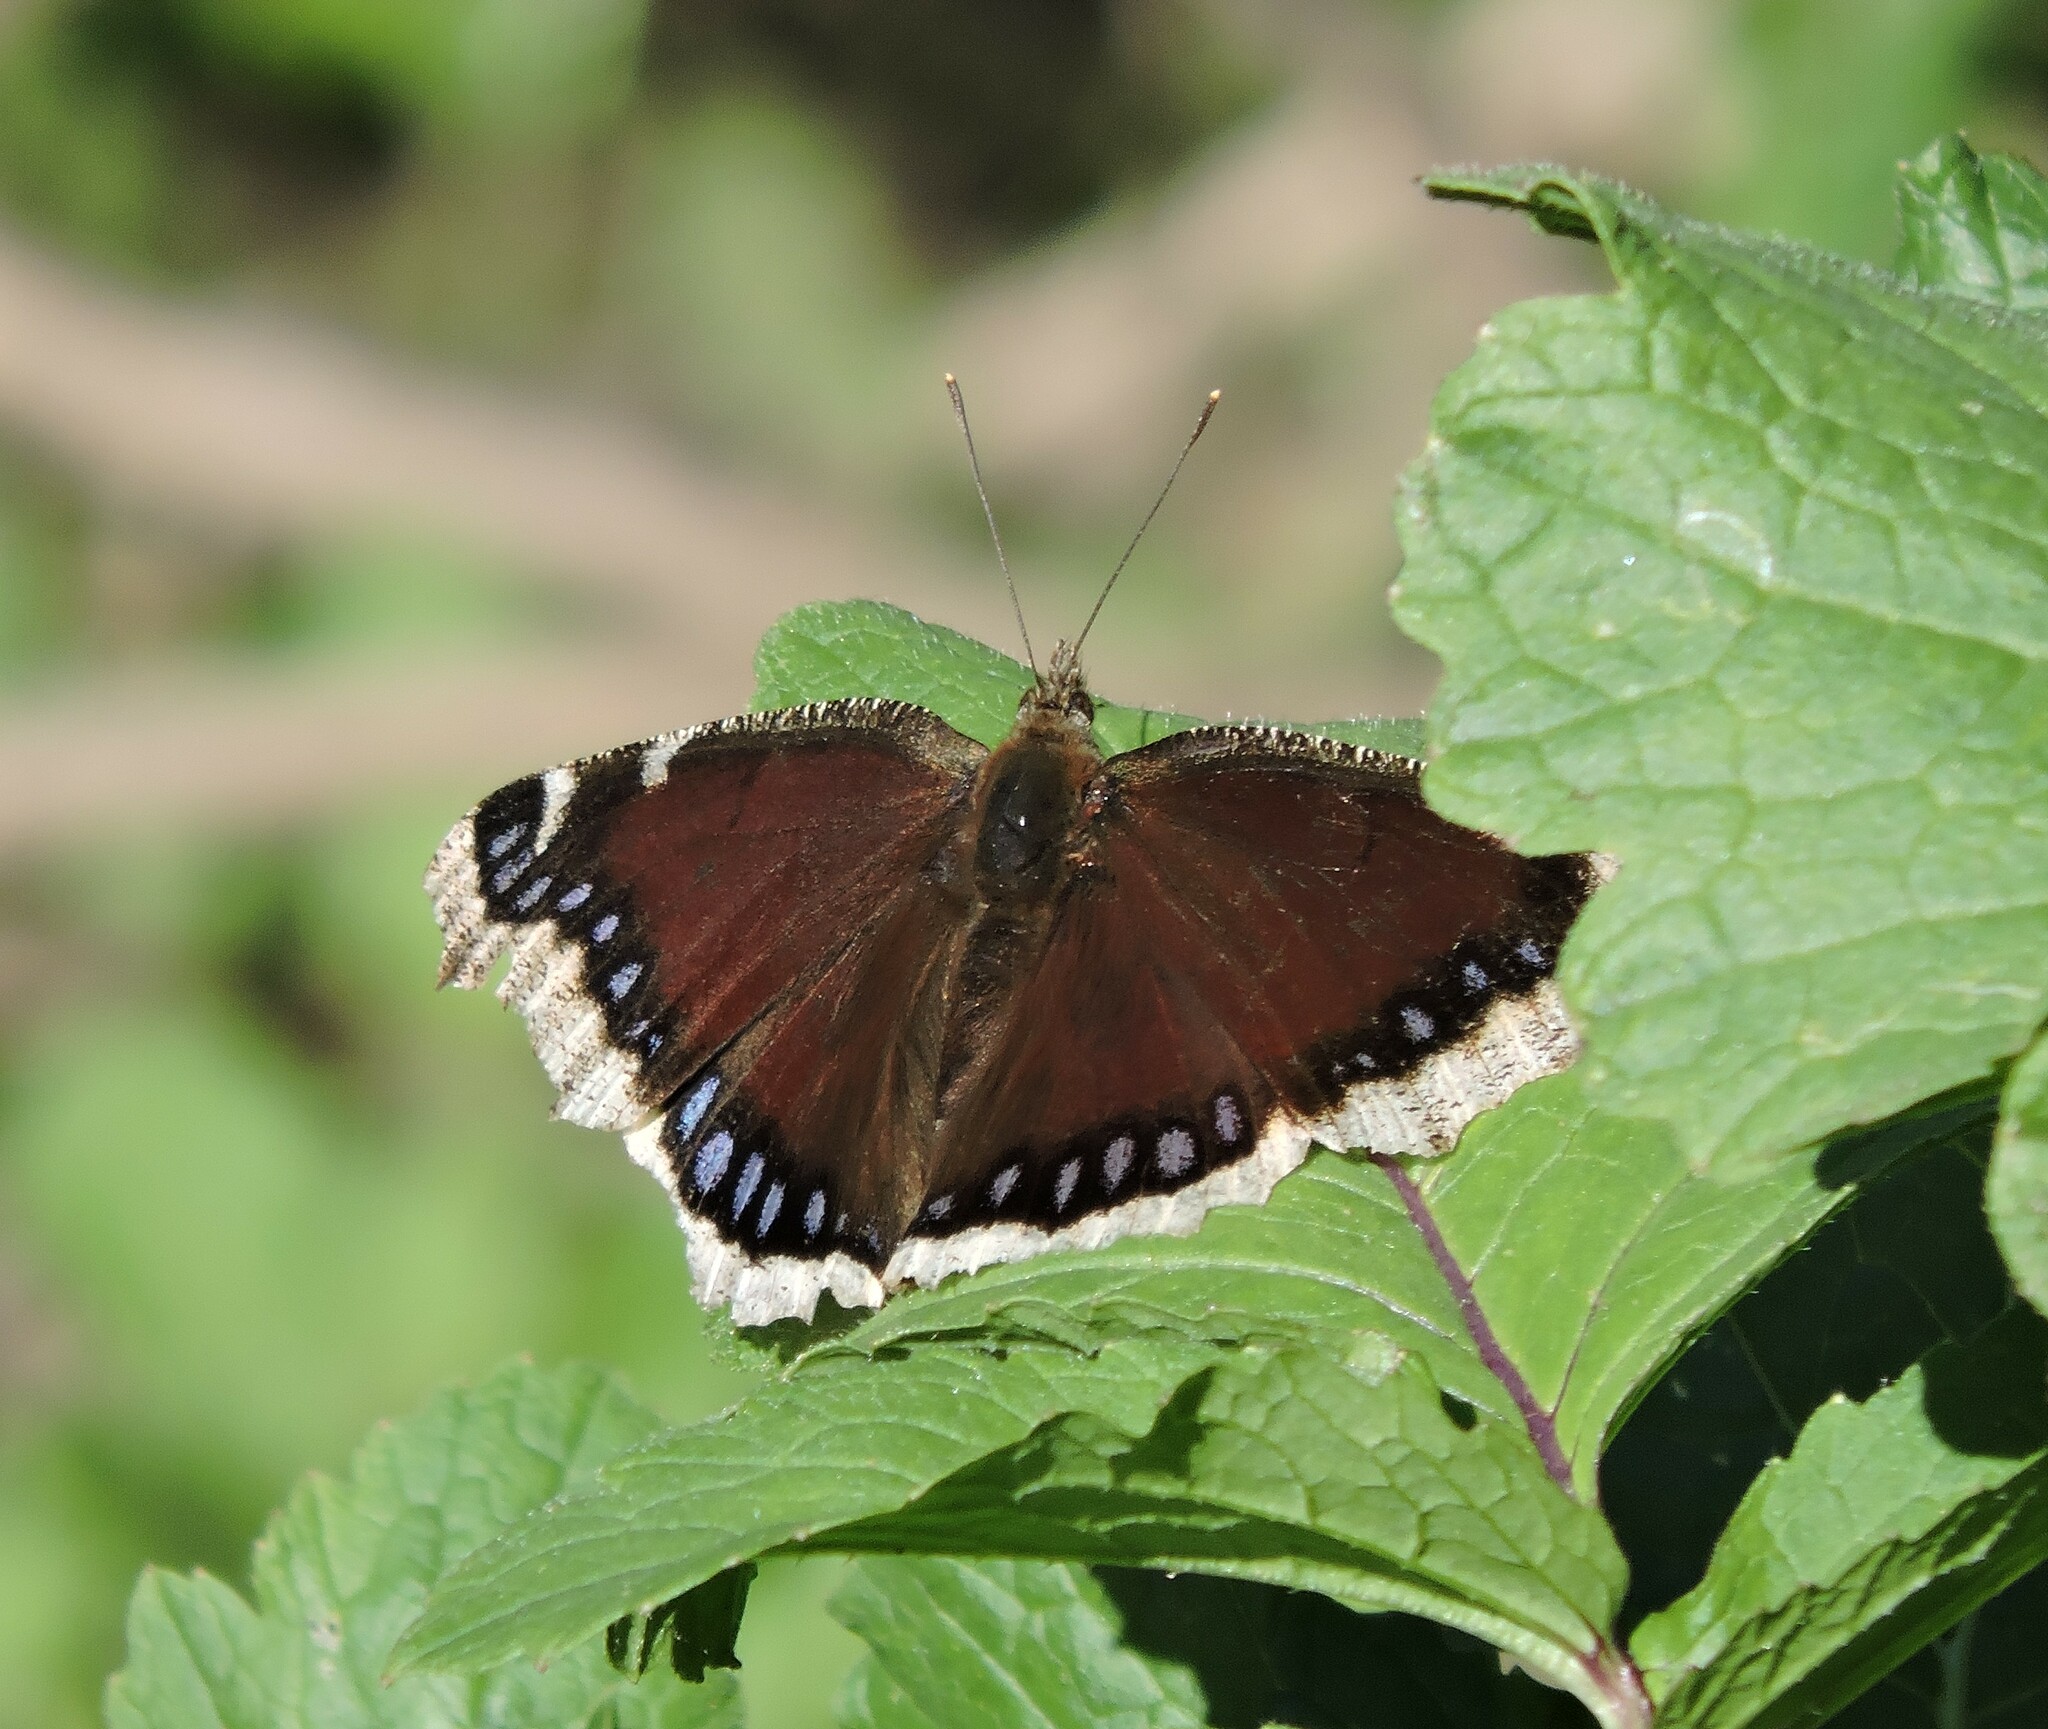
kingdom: Animalia
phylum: Arthropoda
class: Insecta
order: Lepidoptera
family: Nymphalidae
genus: Nymphalis
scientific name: Nymphalis antiopa
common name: Camberwell beauty
